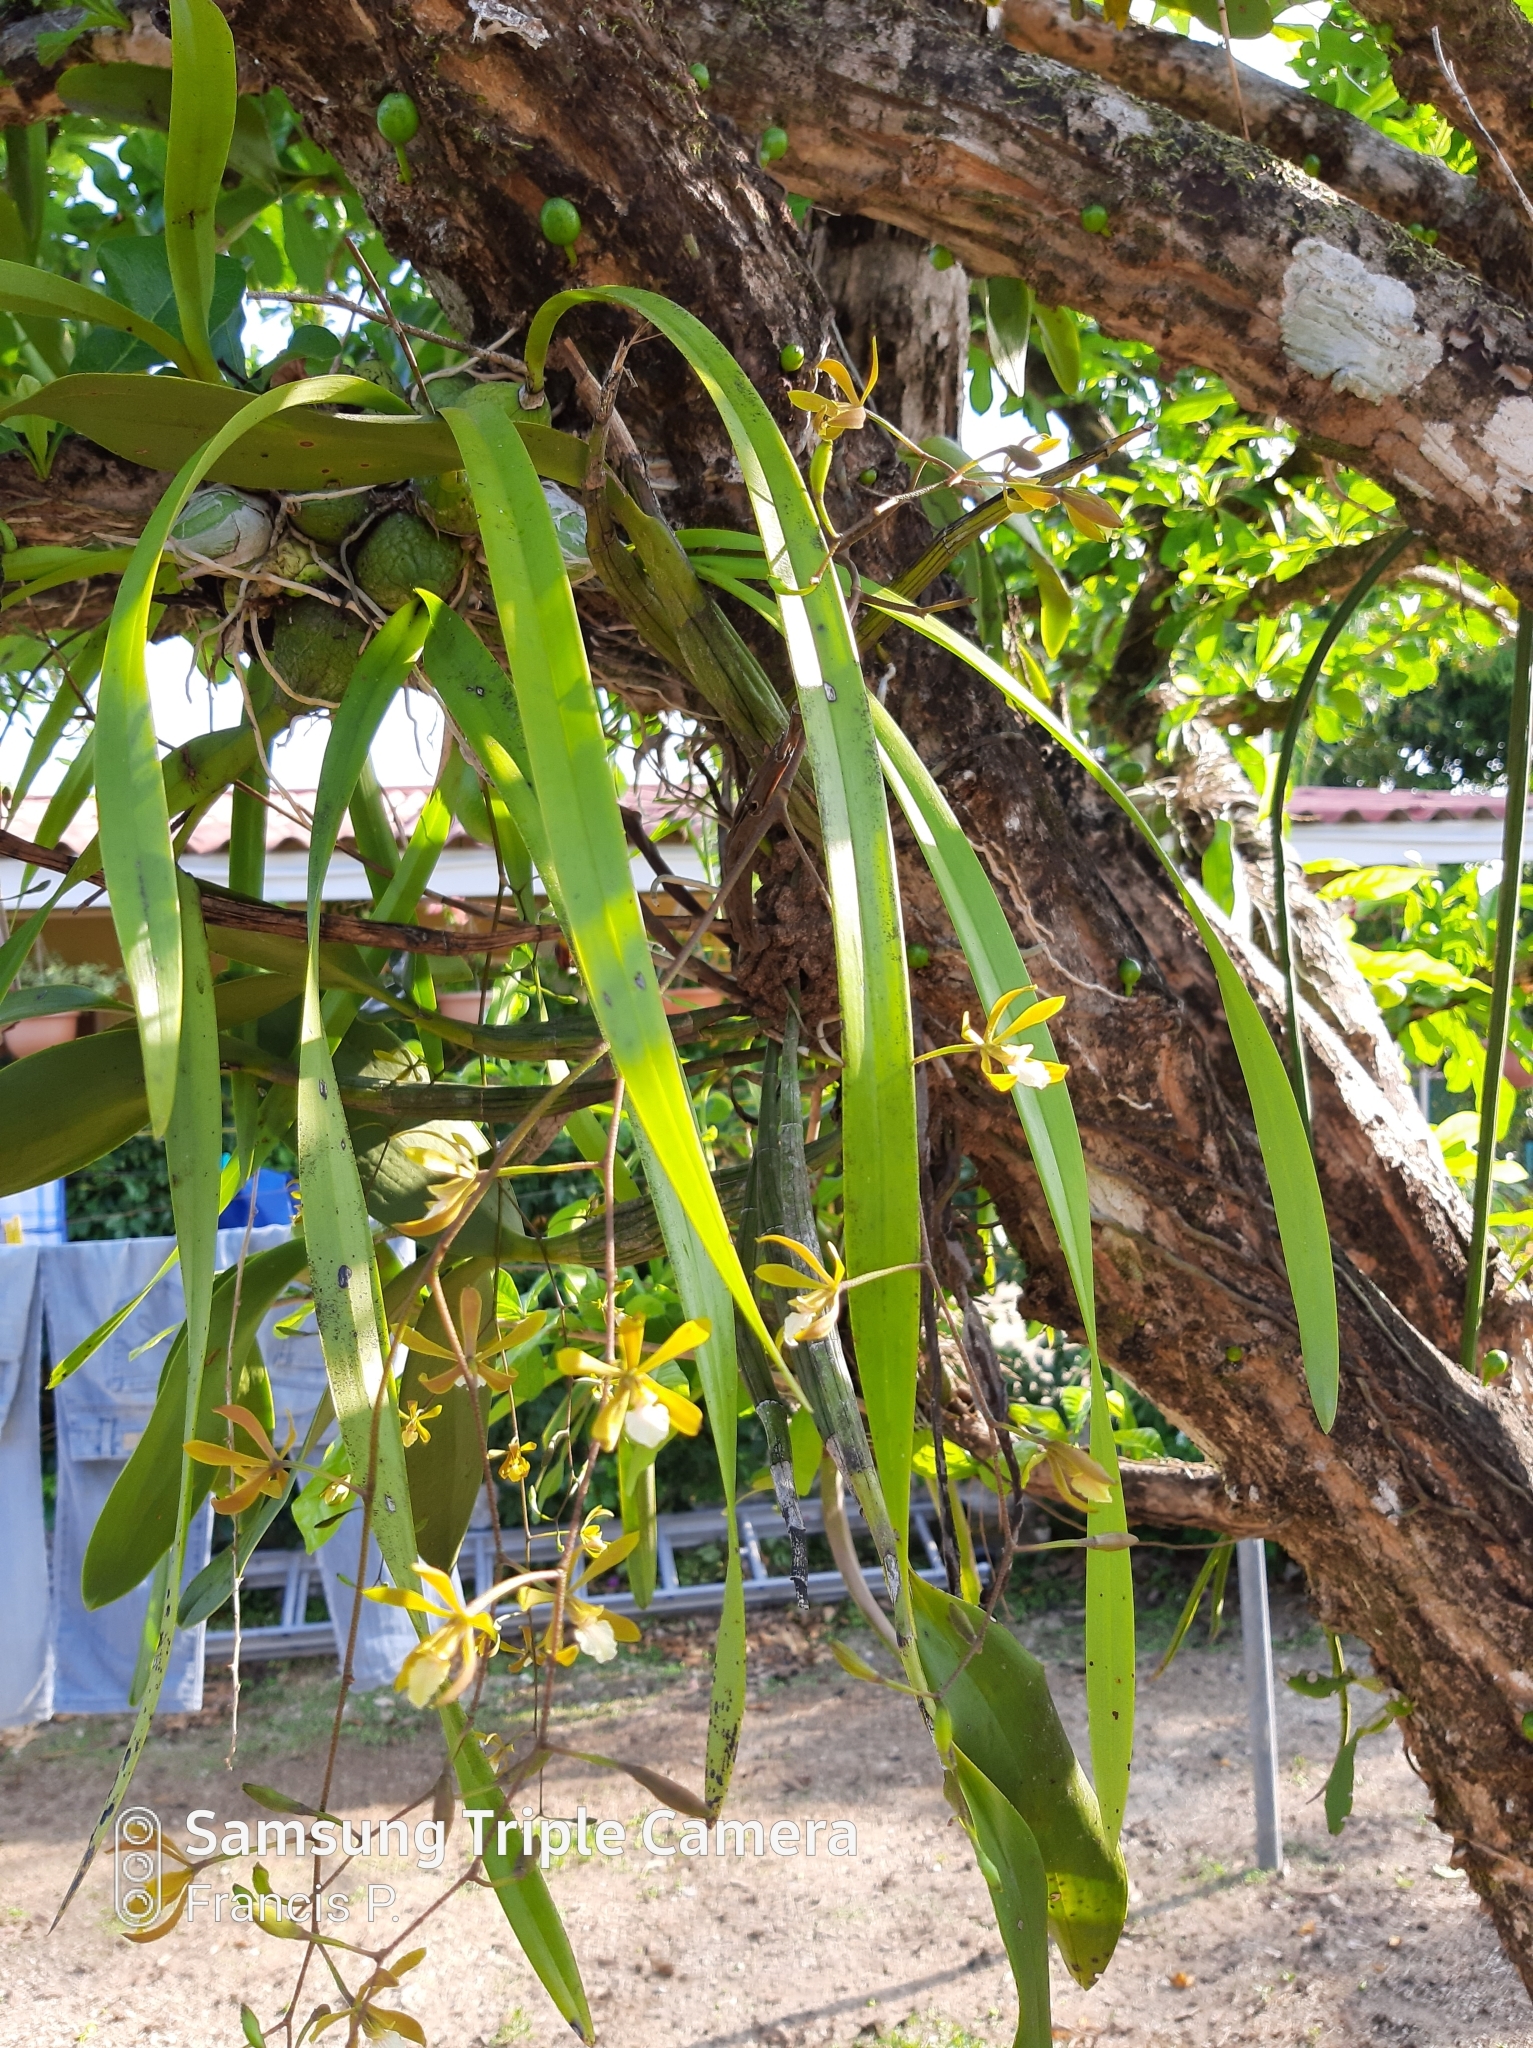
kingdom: Plantae
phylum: Tracheophyta
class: Liliopsida
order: Asparagales
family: Orchidaceae
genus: Encyclia
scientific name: Encyclia stellata
